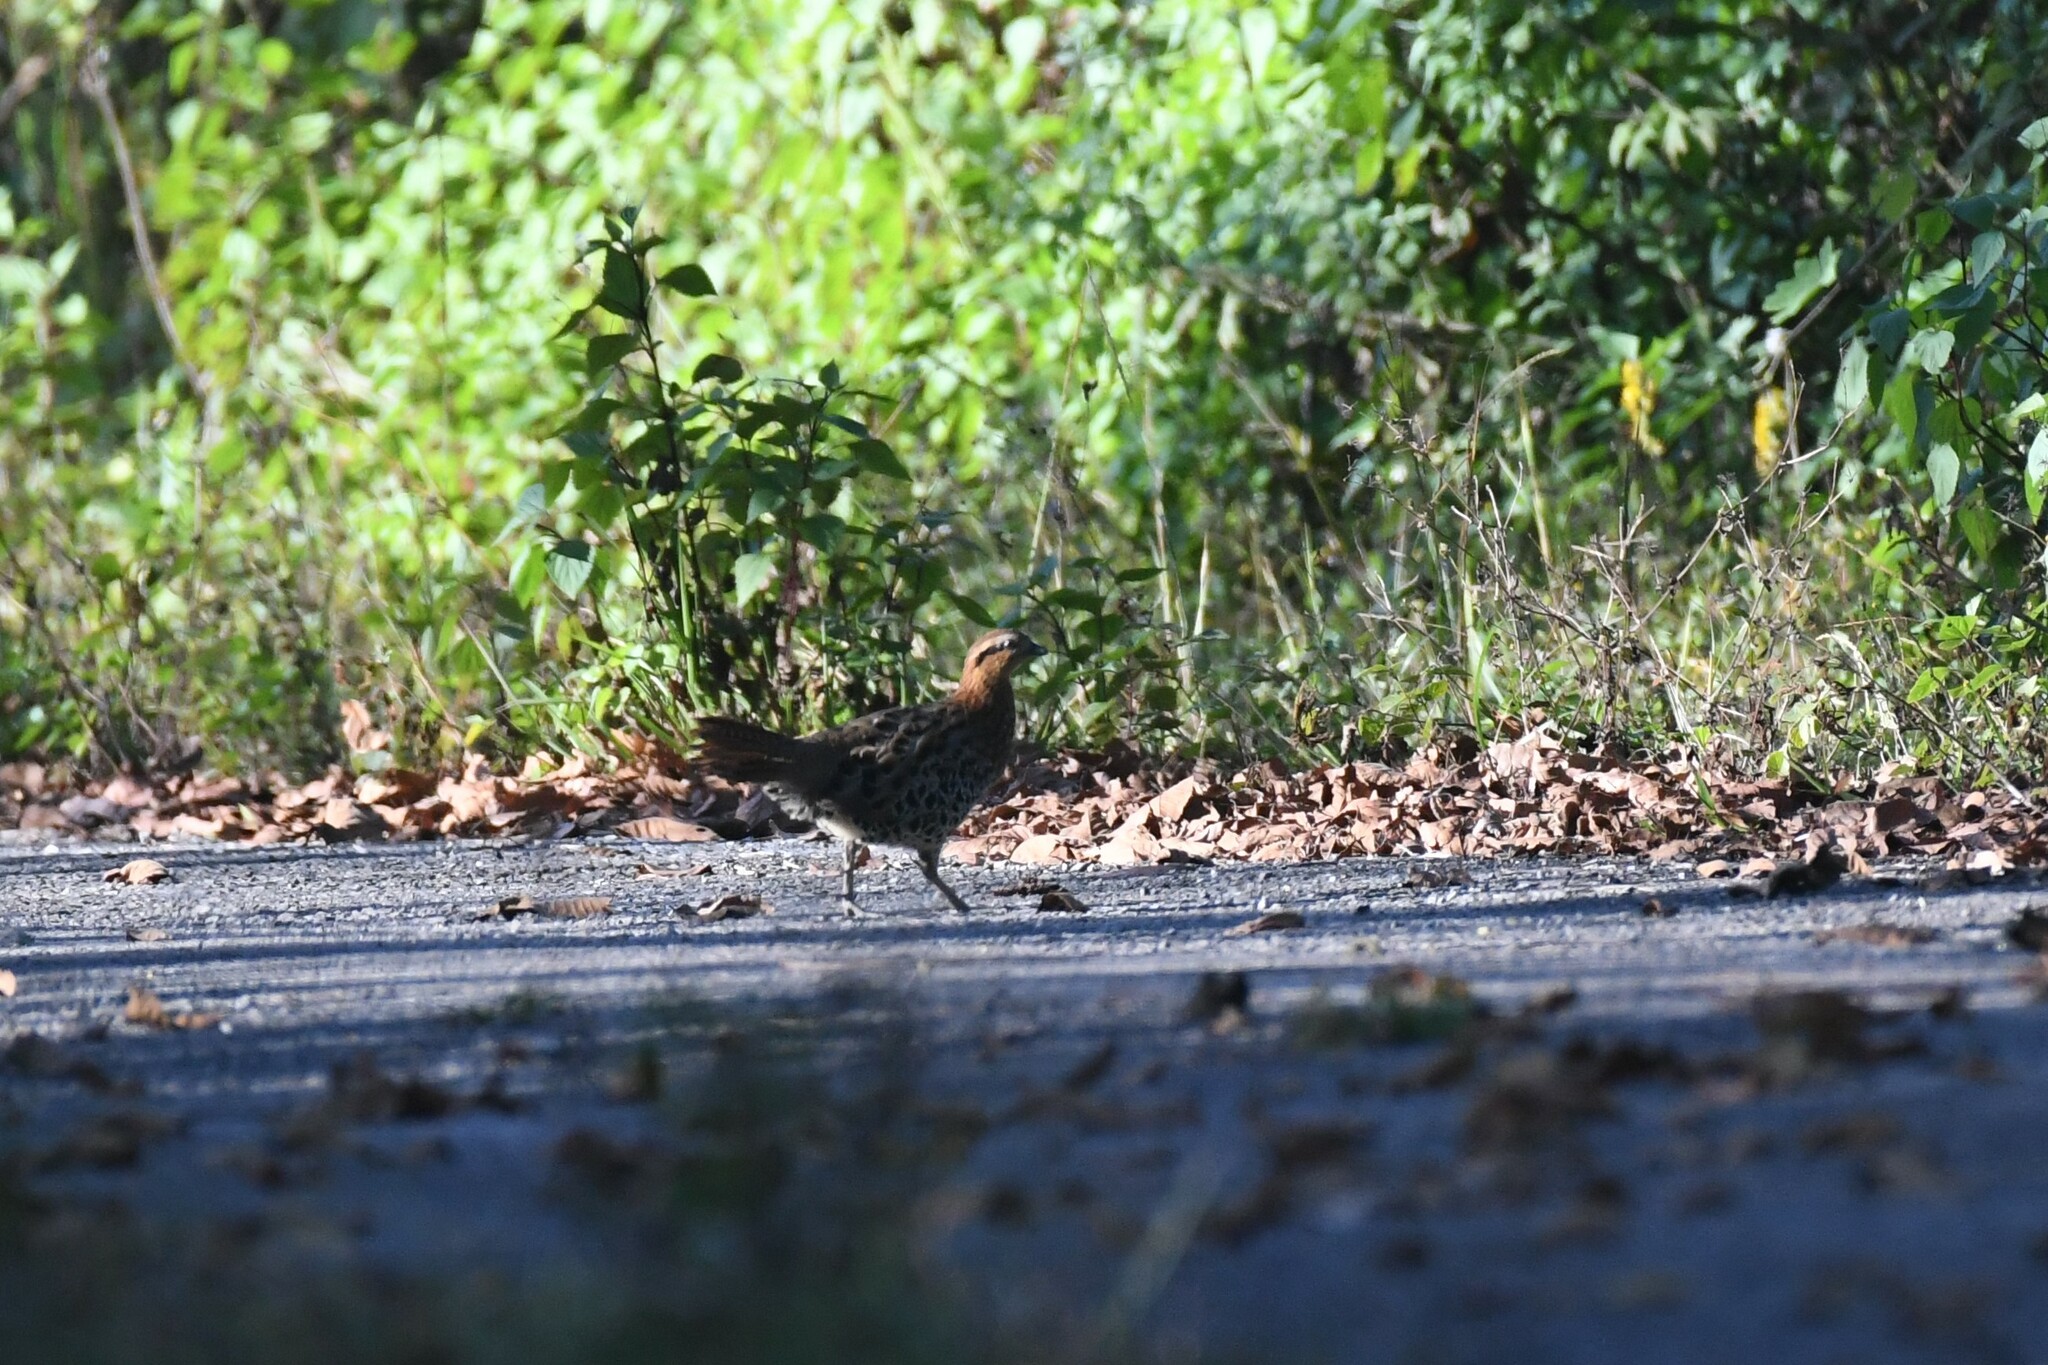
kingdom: Animalia
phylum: Chordata
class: Aves
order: Galliformes
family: Phasianidae
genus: Bambusicola
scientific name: Bambusicola fytchii
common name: Mountain bamboo-partridge
